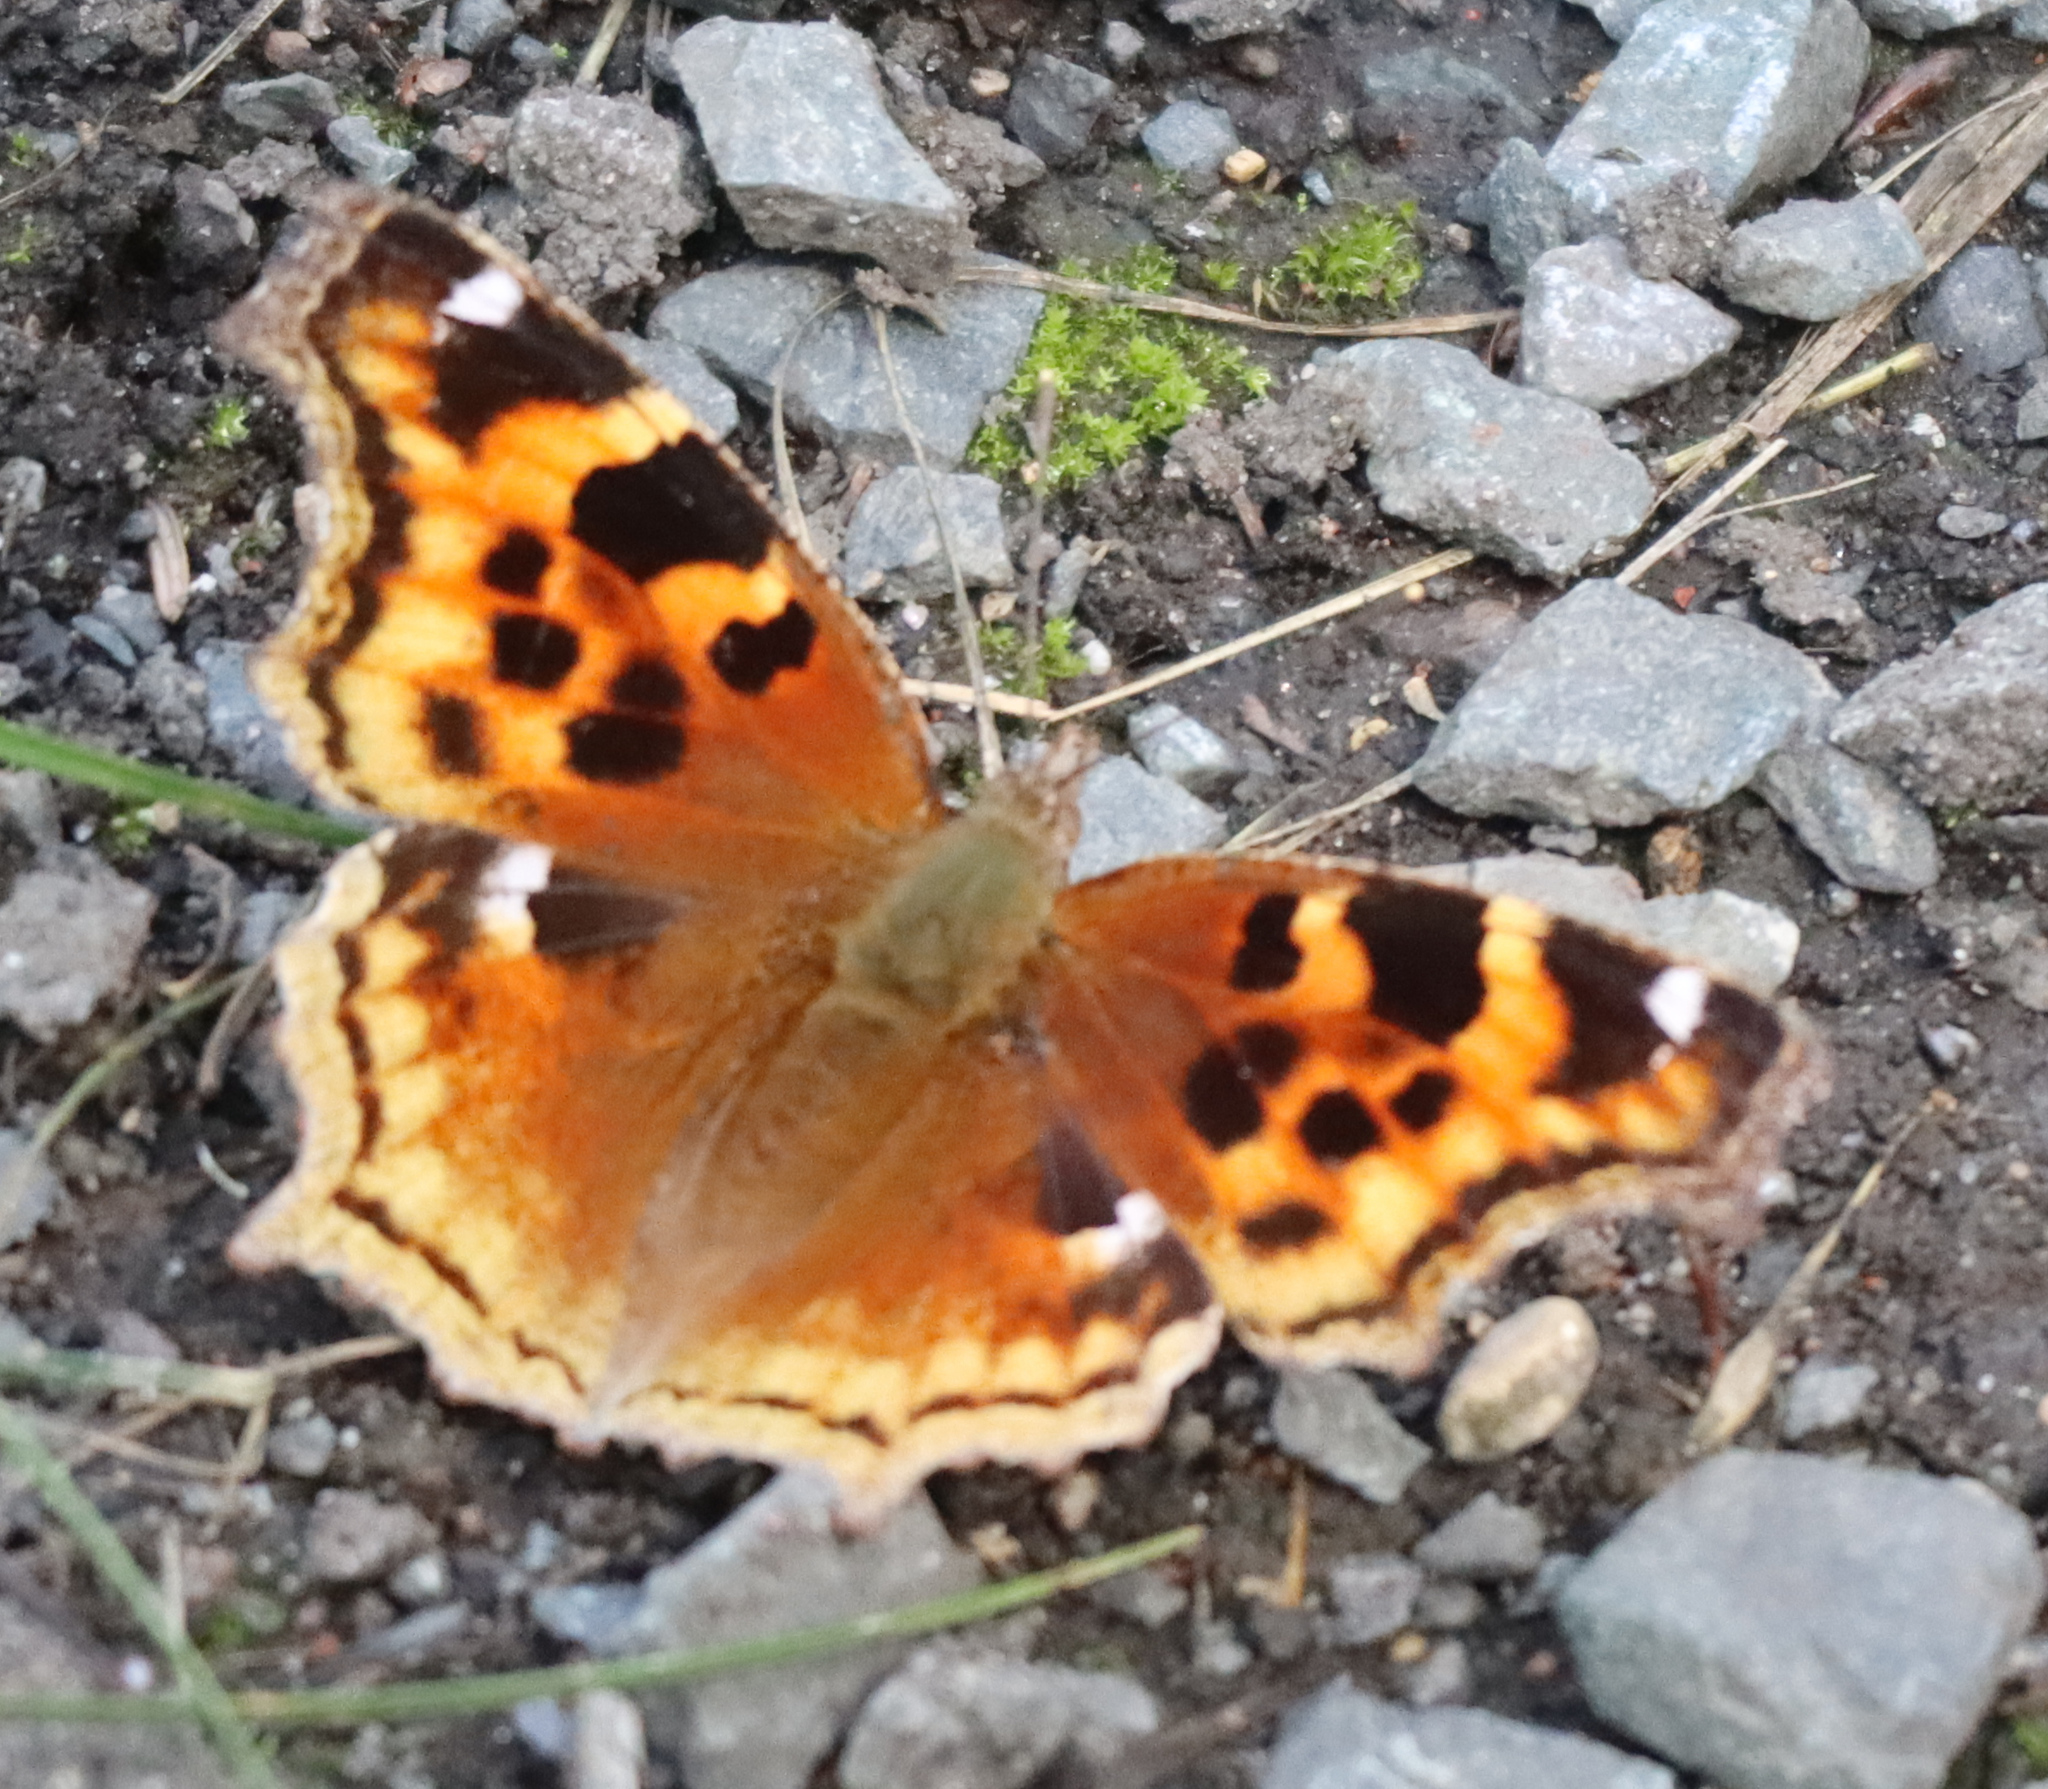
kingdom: Animalia
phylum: Arthropoda
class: Insecta
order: Lepidoptera
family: Nymphalidae
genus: Polygonia
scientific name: Polygonia vaualbum
